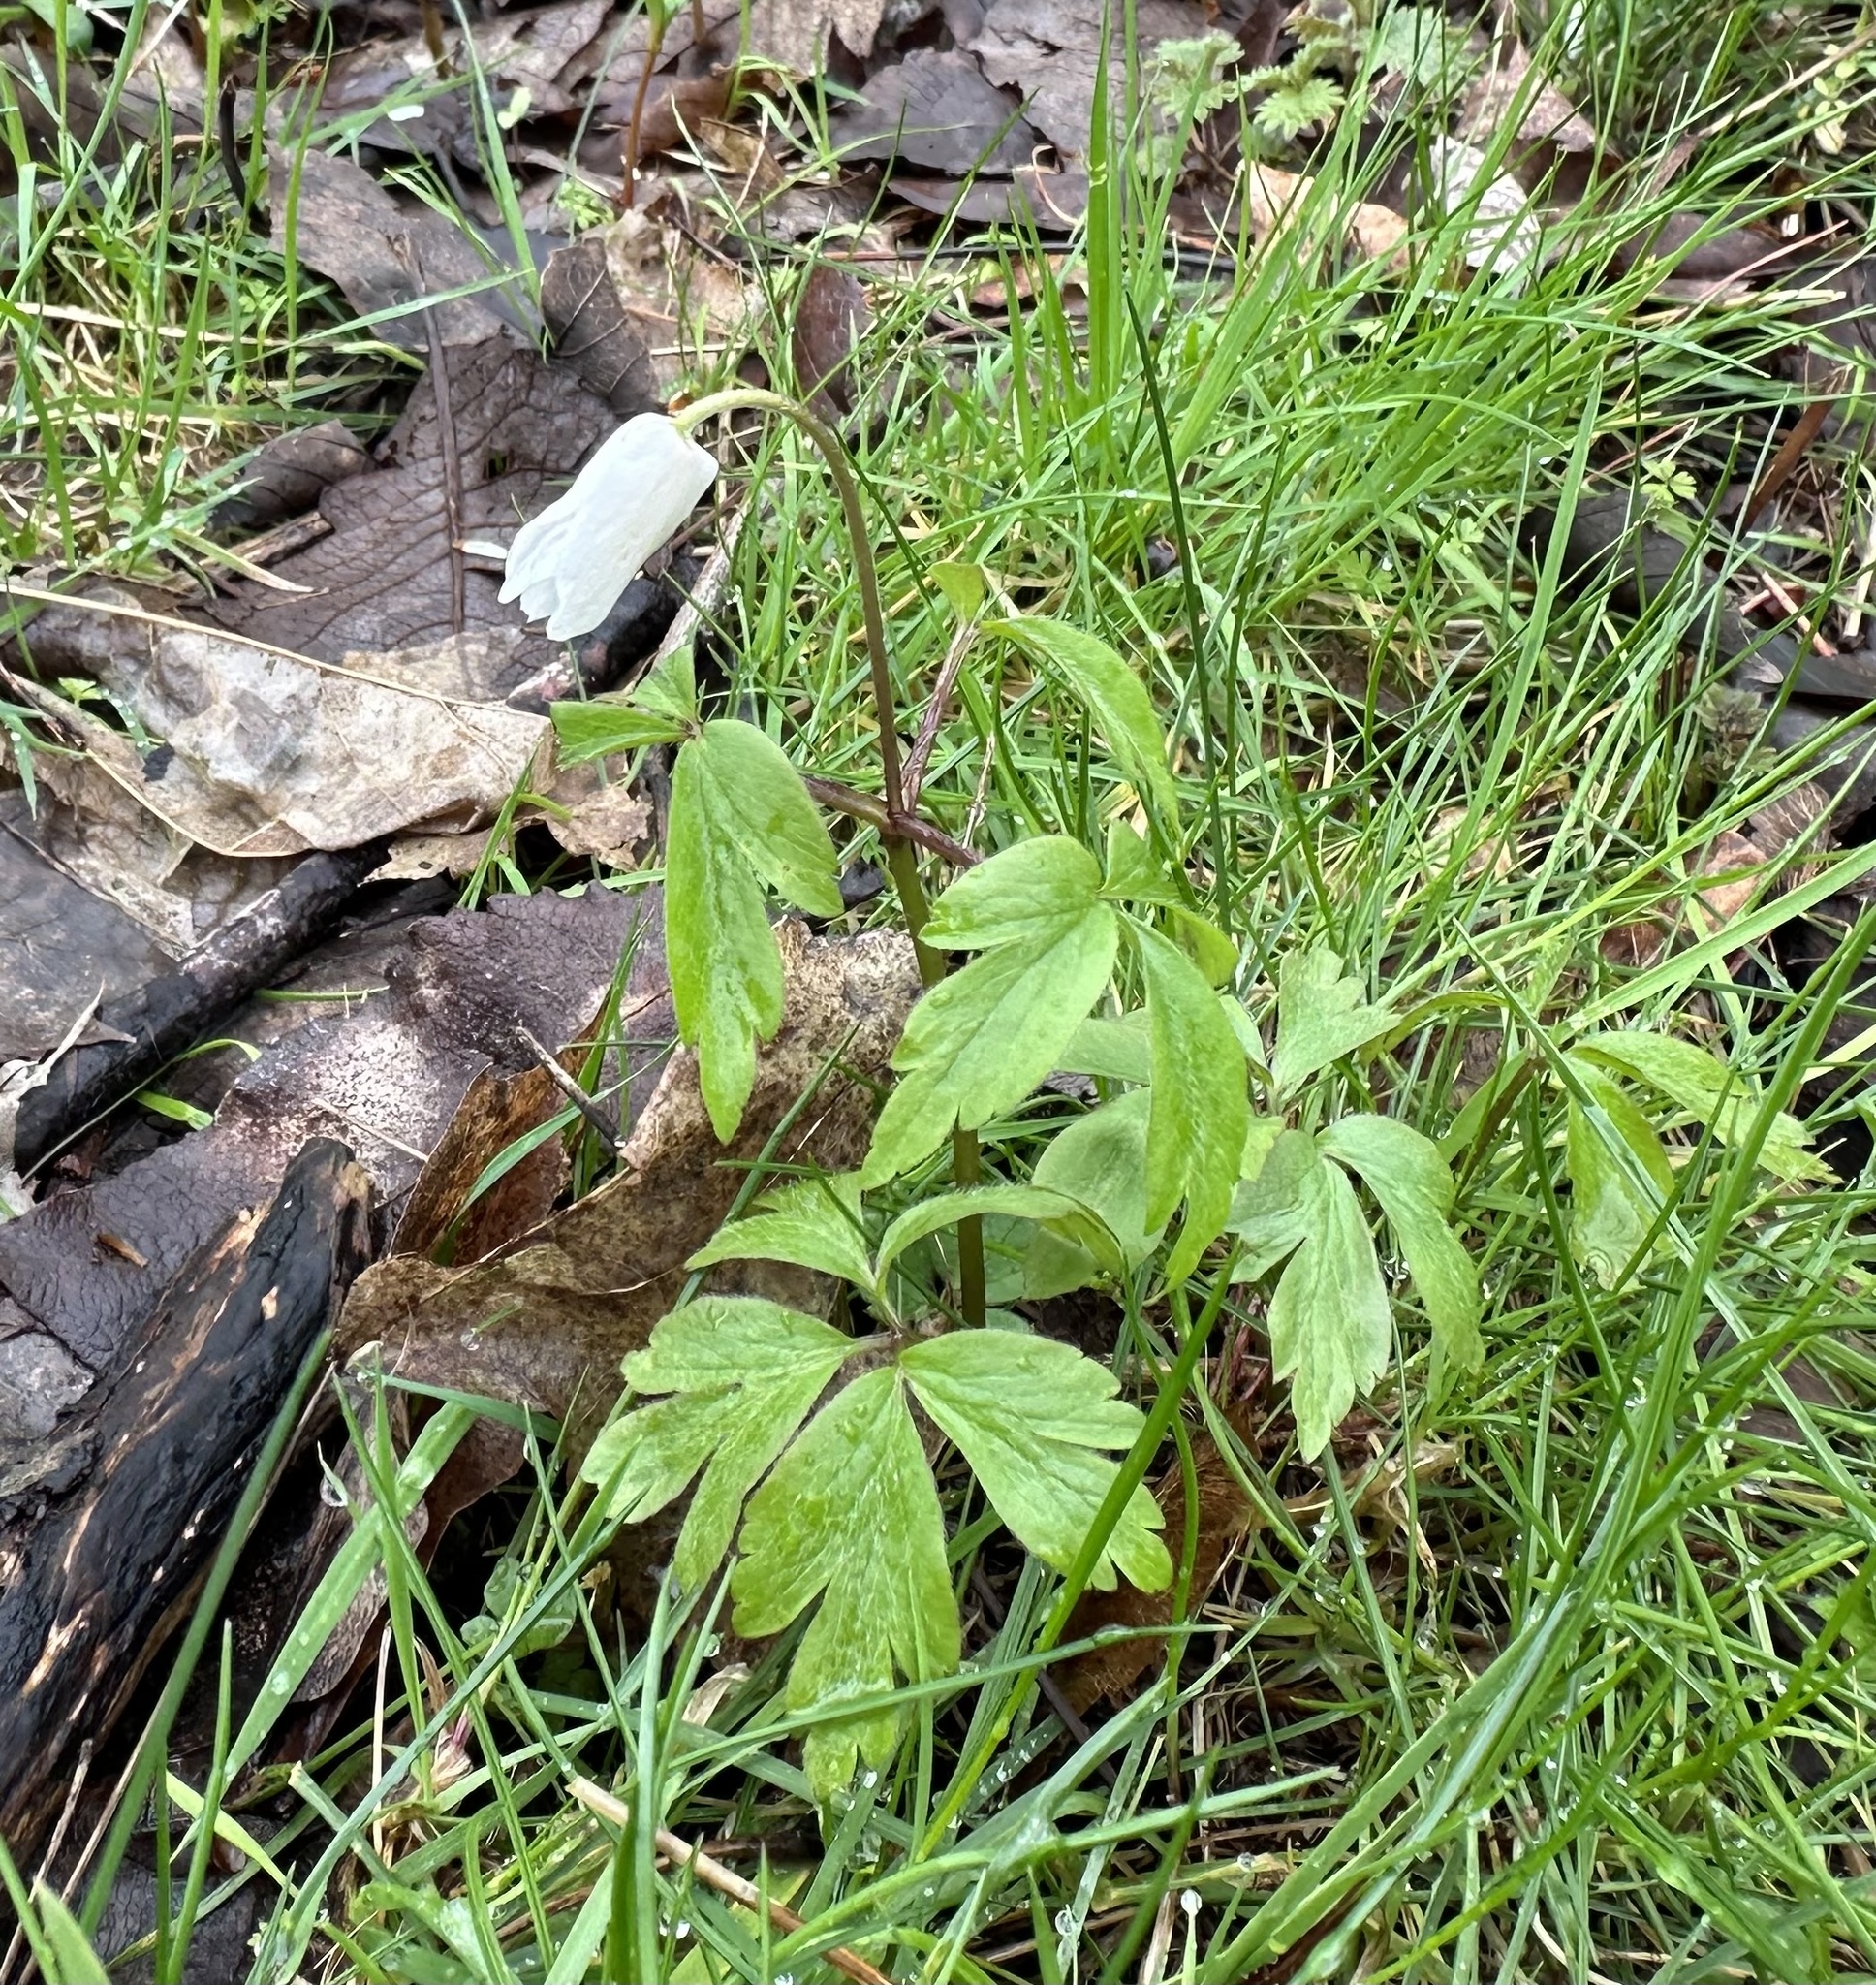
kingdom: Plantae
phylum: Tracheophyta
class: Magnoliopsida
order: Ranunculales
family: Ranunculaceae
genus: Anemone
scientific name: Anemone nemorosa
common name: Wood anemone
